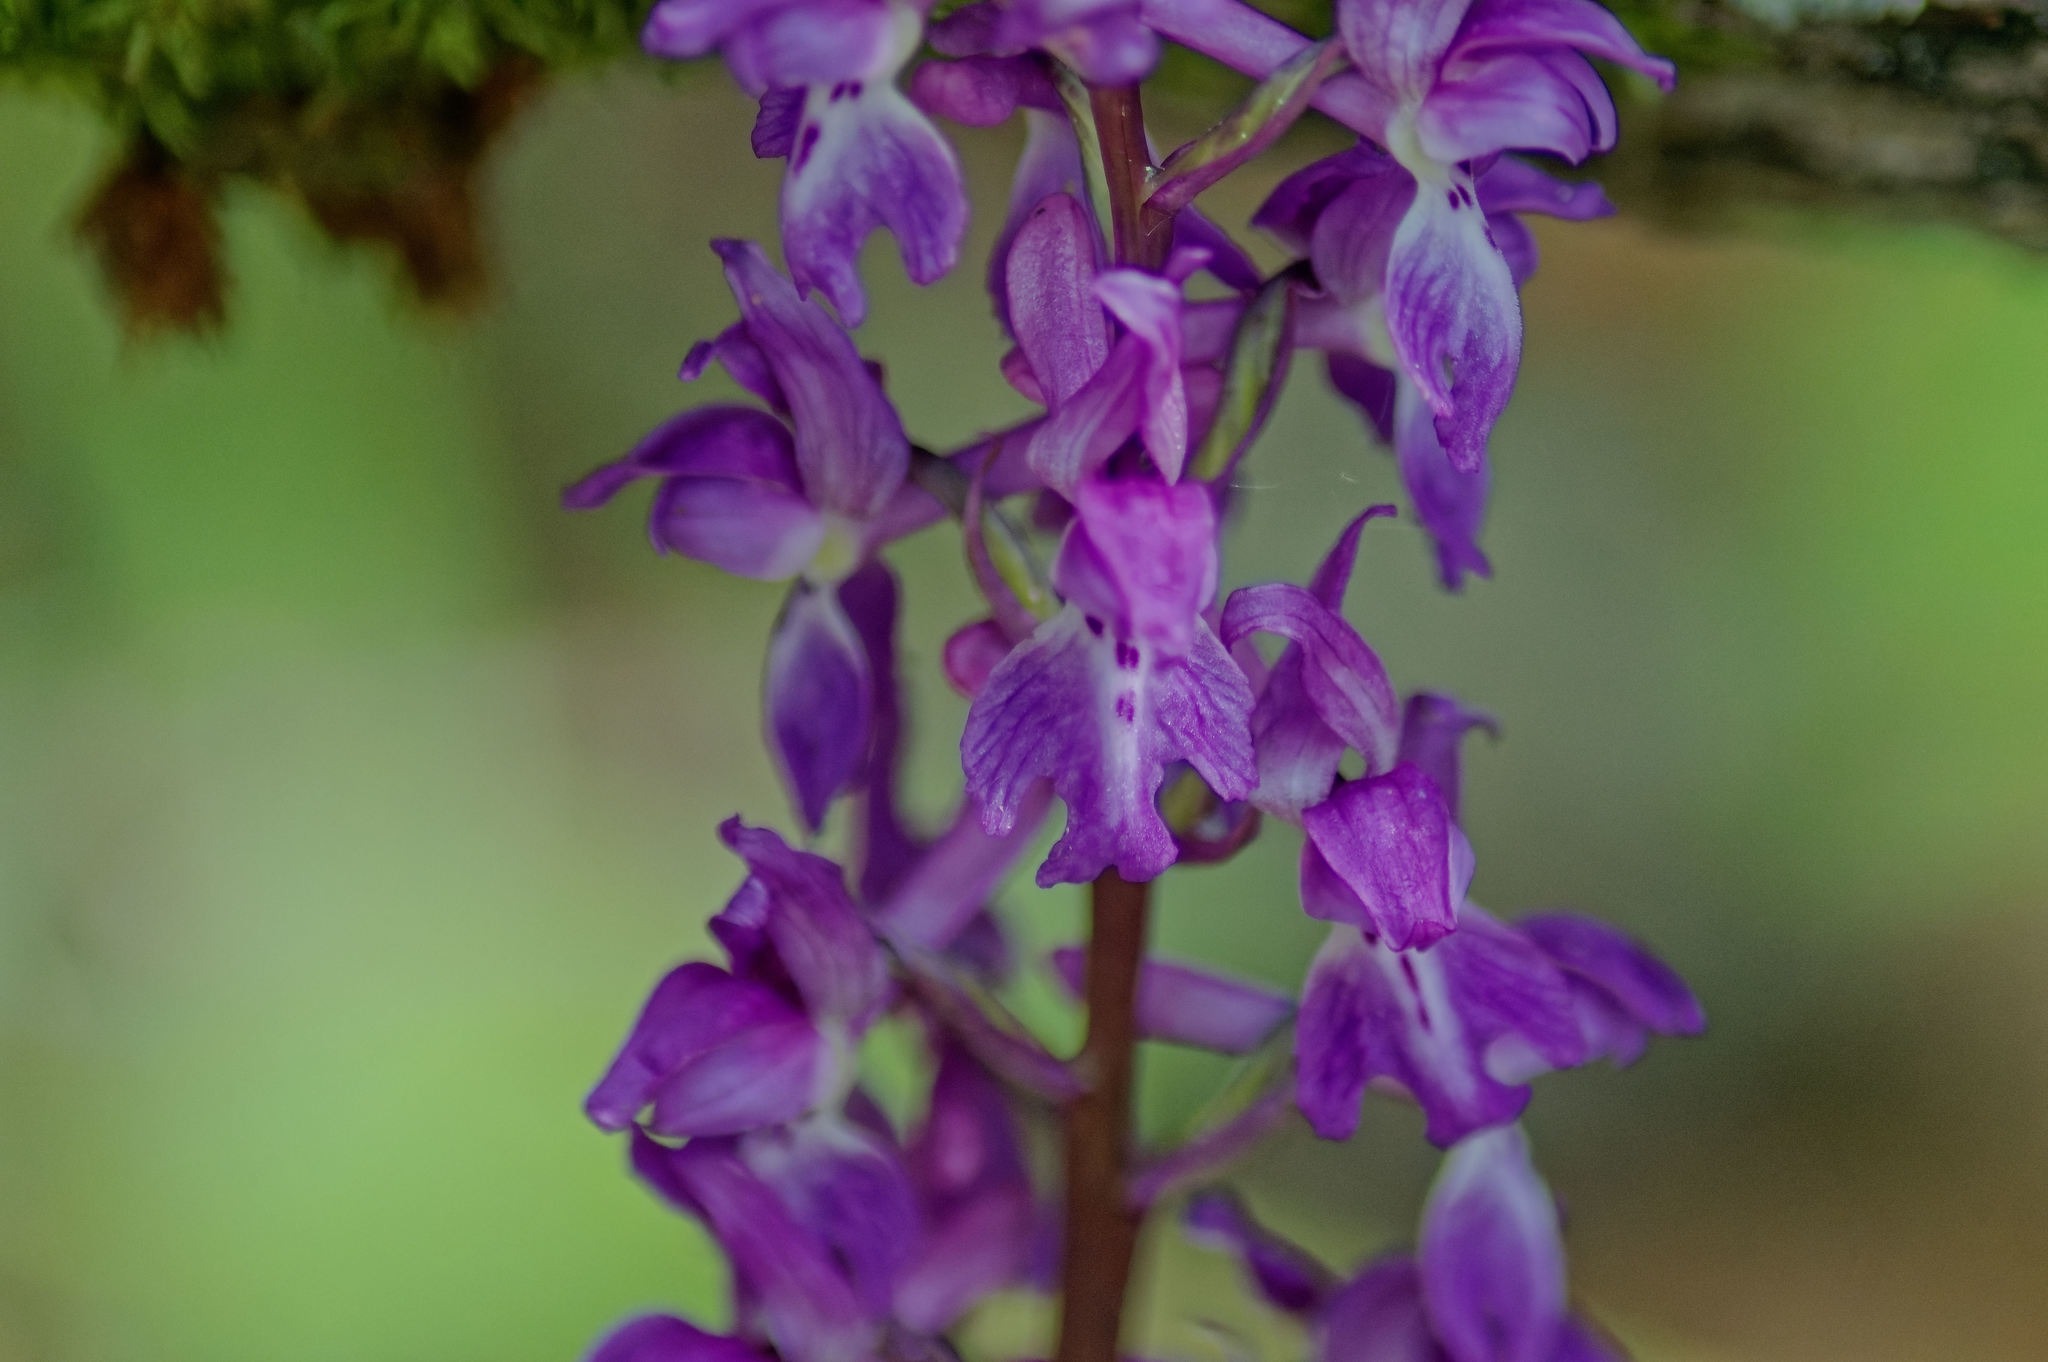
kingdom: Plantae
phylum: Tracheophyta
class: Liliopsida
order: Asparagales
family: Orchidaceae
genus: Orchis
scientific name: Orchis mascula
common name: Early-purple orchid
